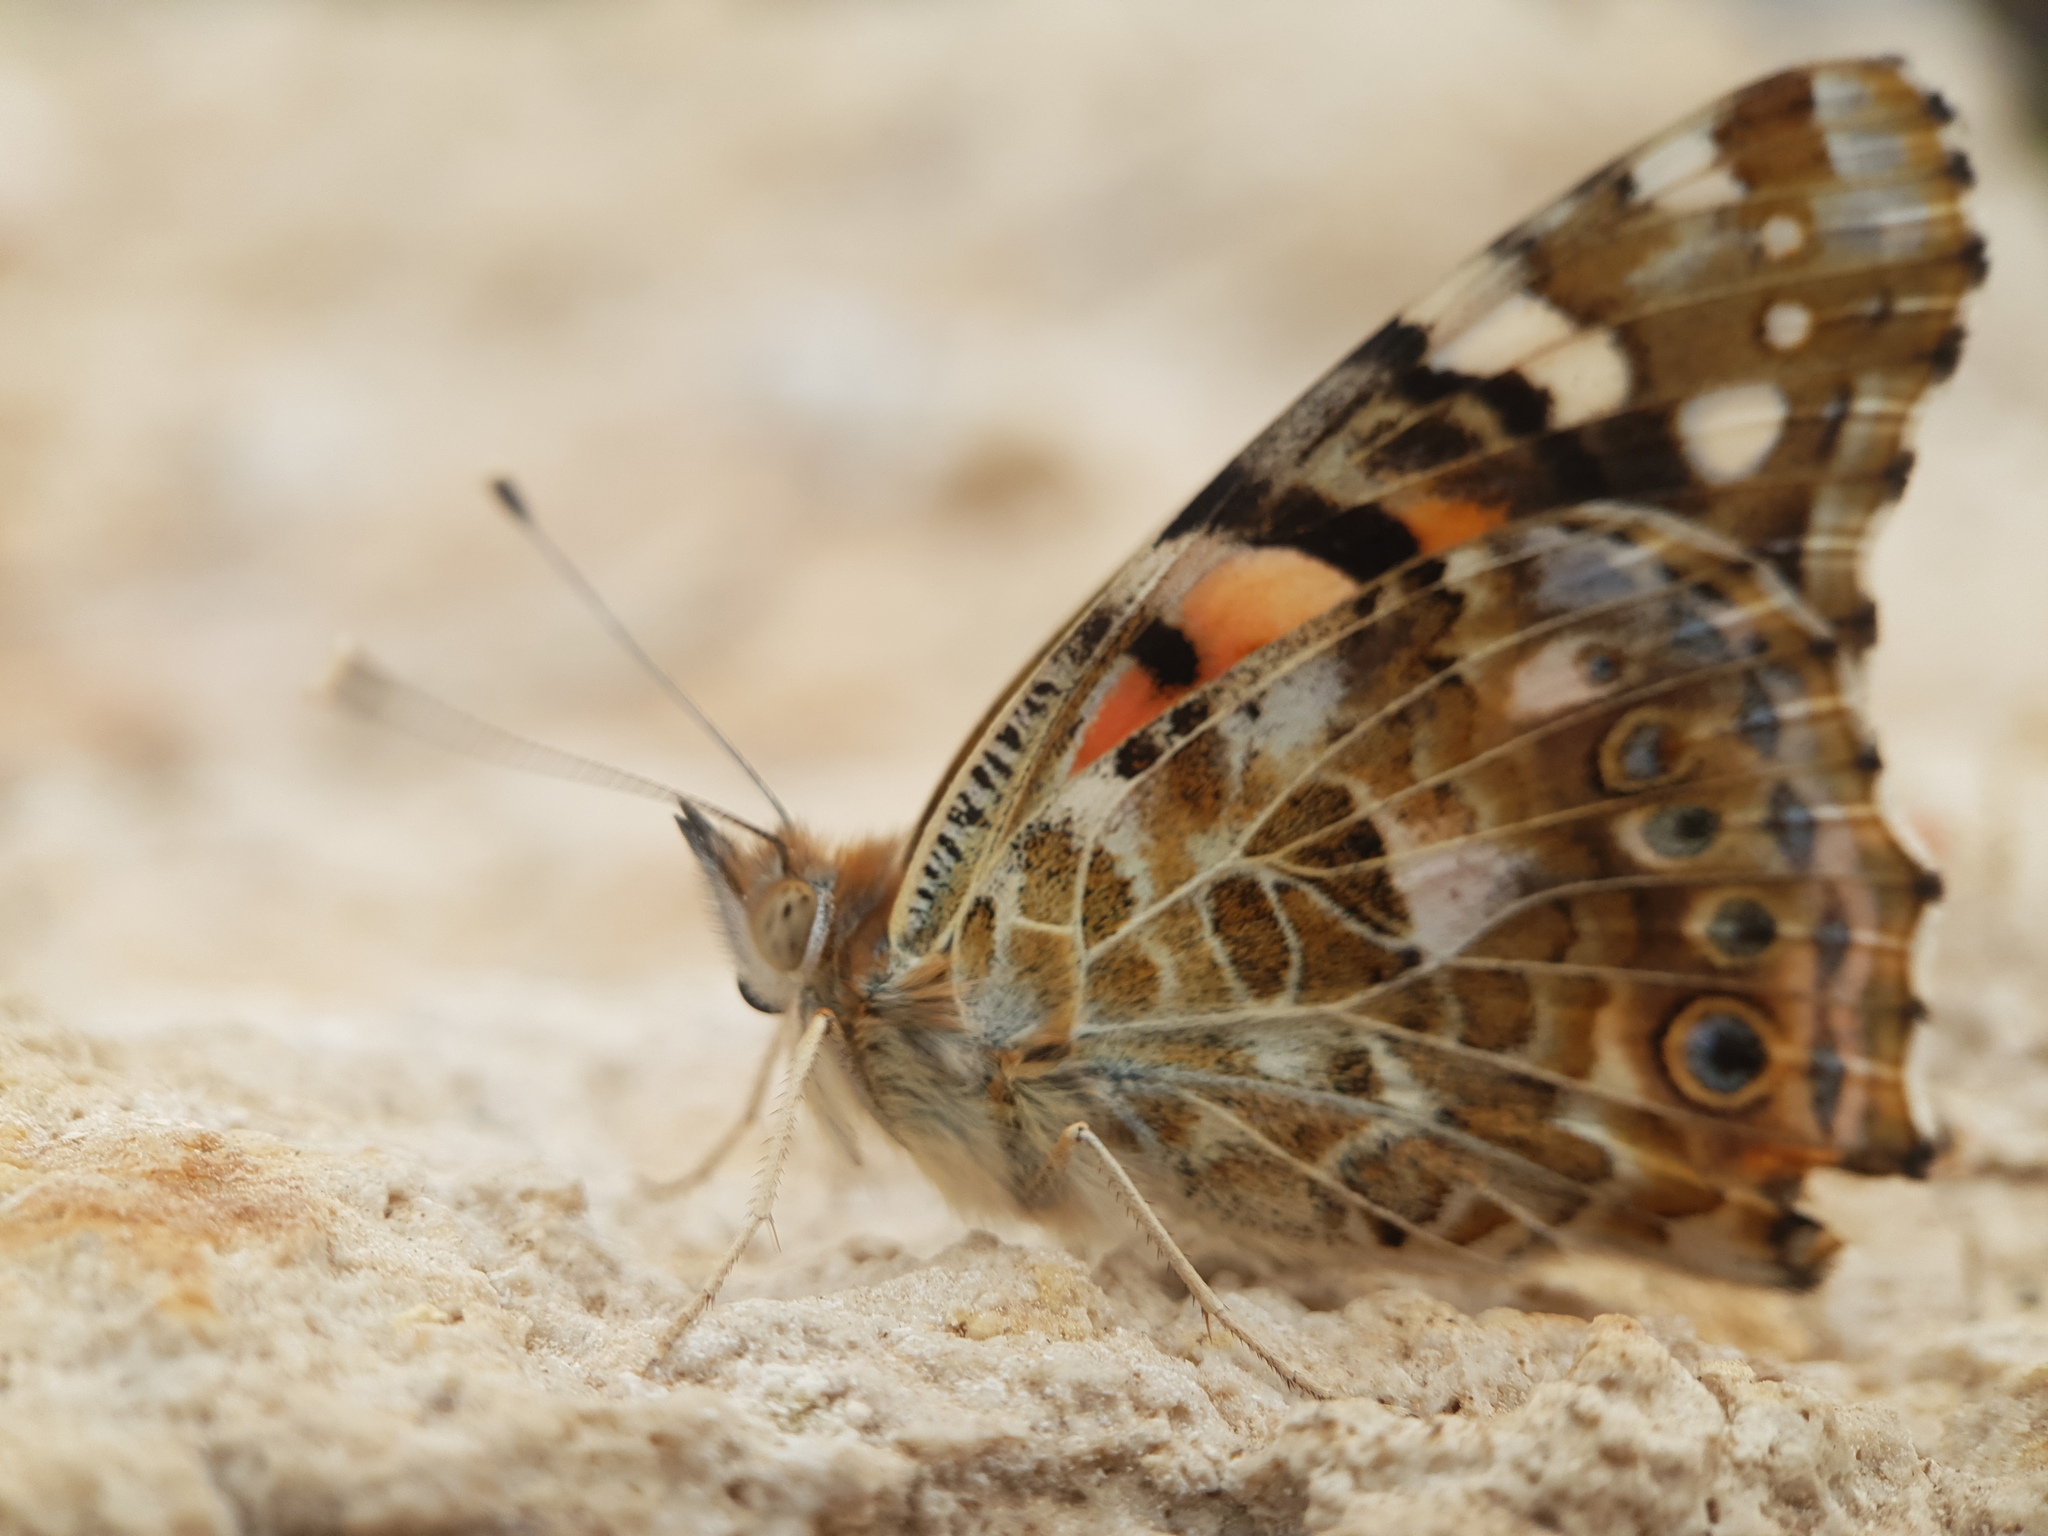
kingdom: Animalia
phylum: Arthropoda
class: Insecta
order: Lepidoptera
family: Nymphalidae
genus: Vanessa
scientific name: Vanessa cardui
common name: Painted lady
